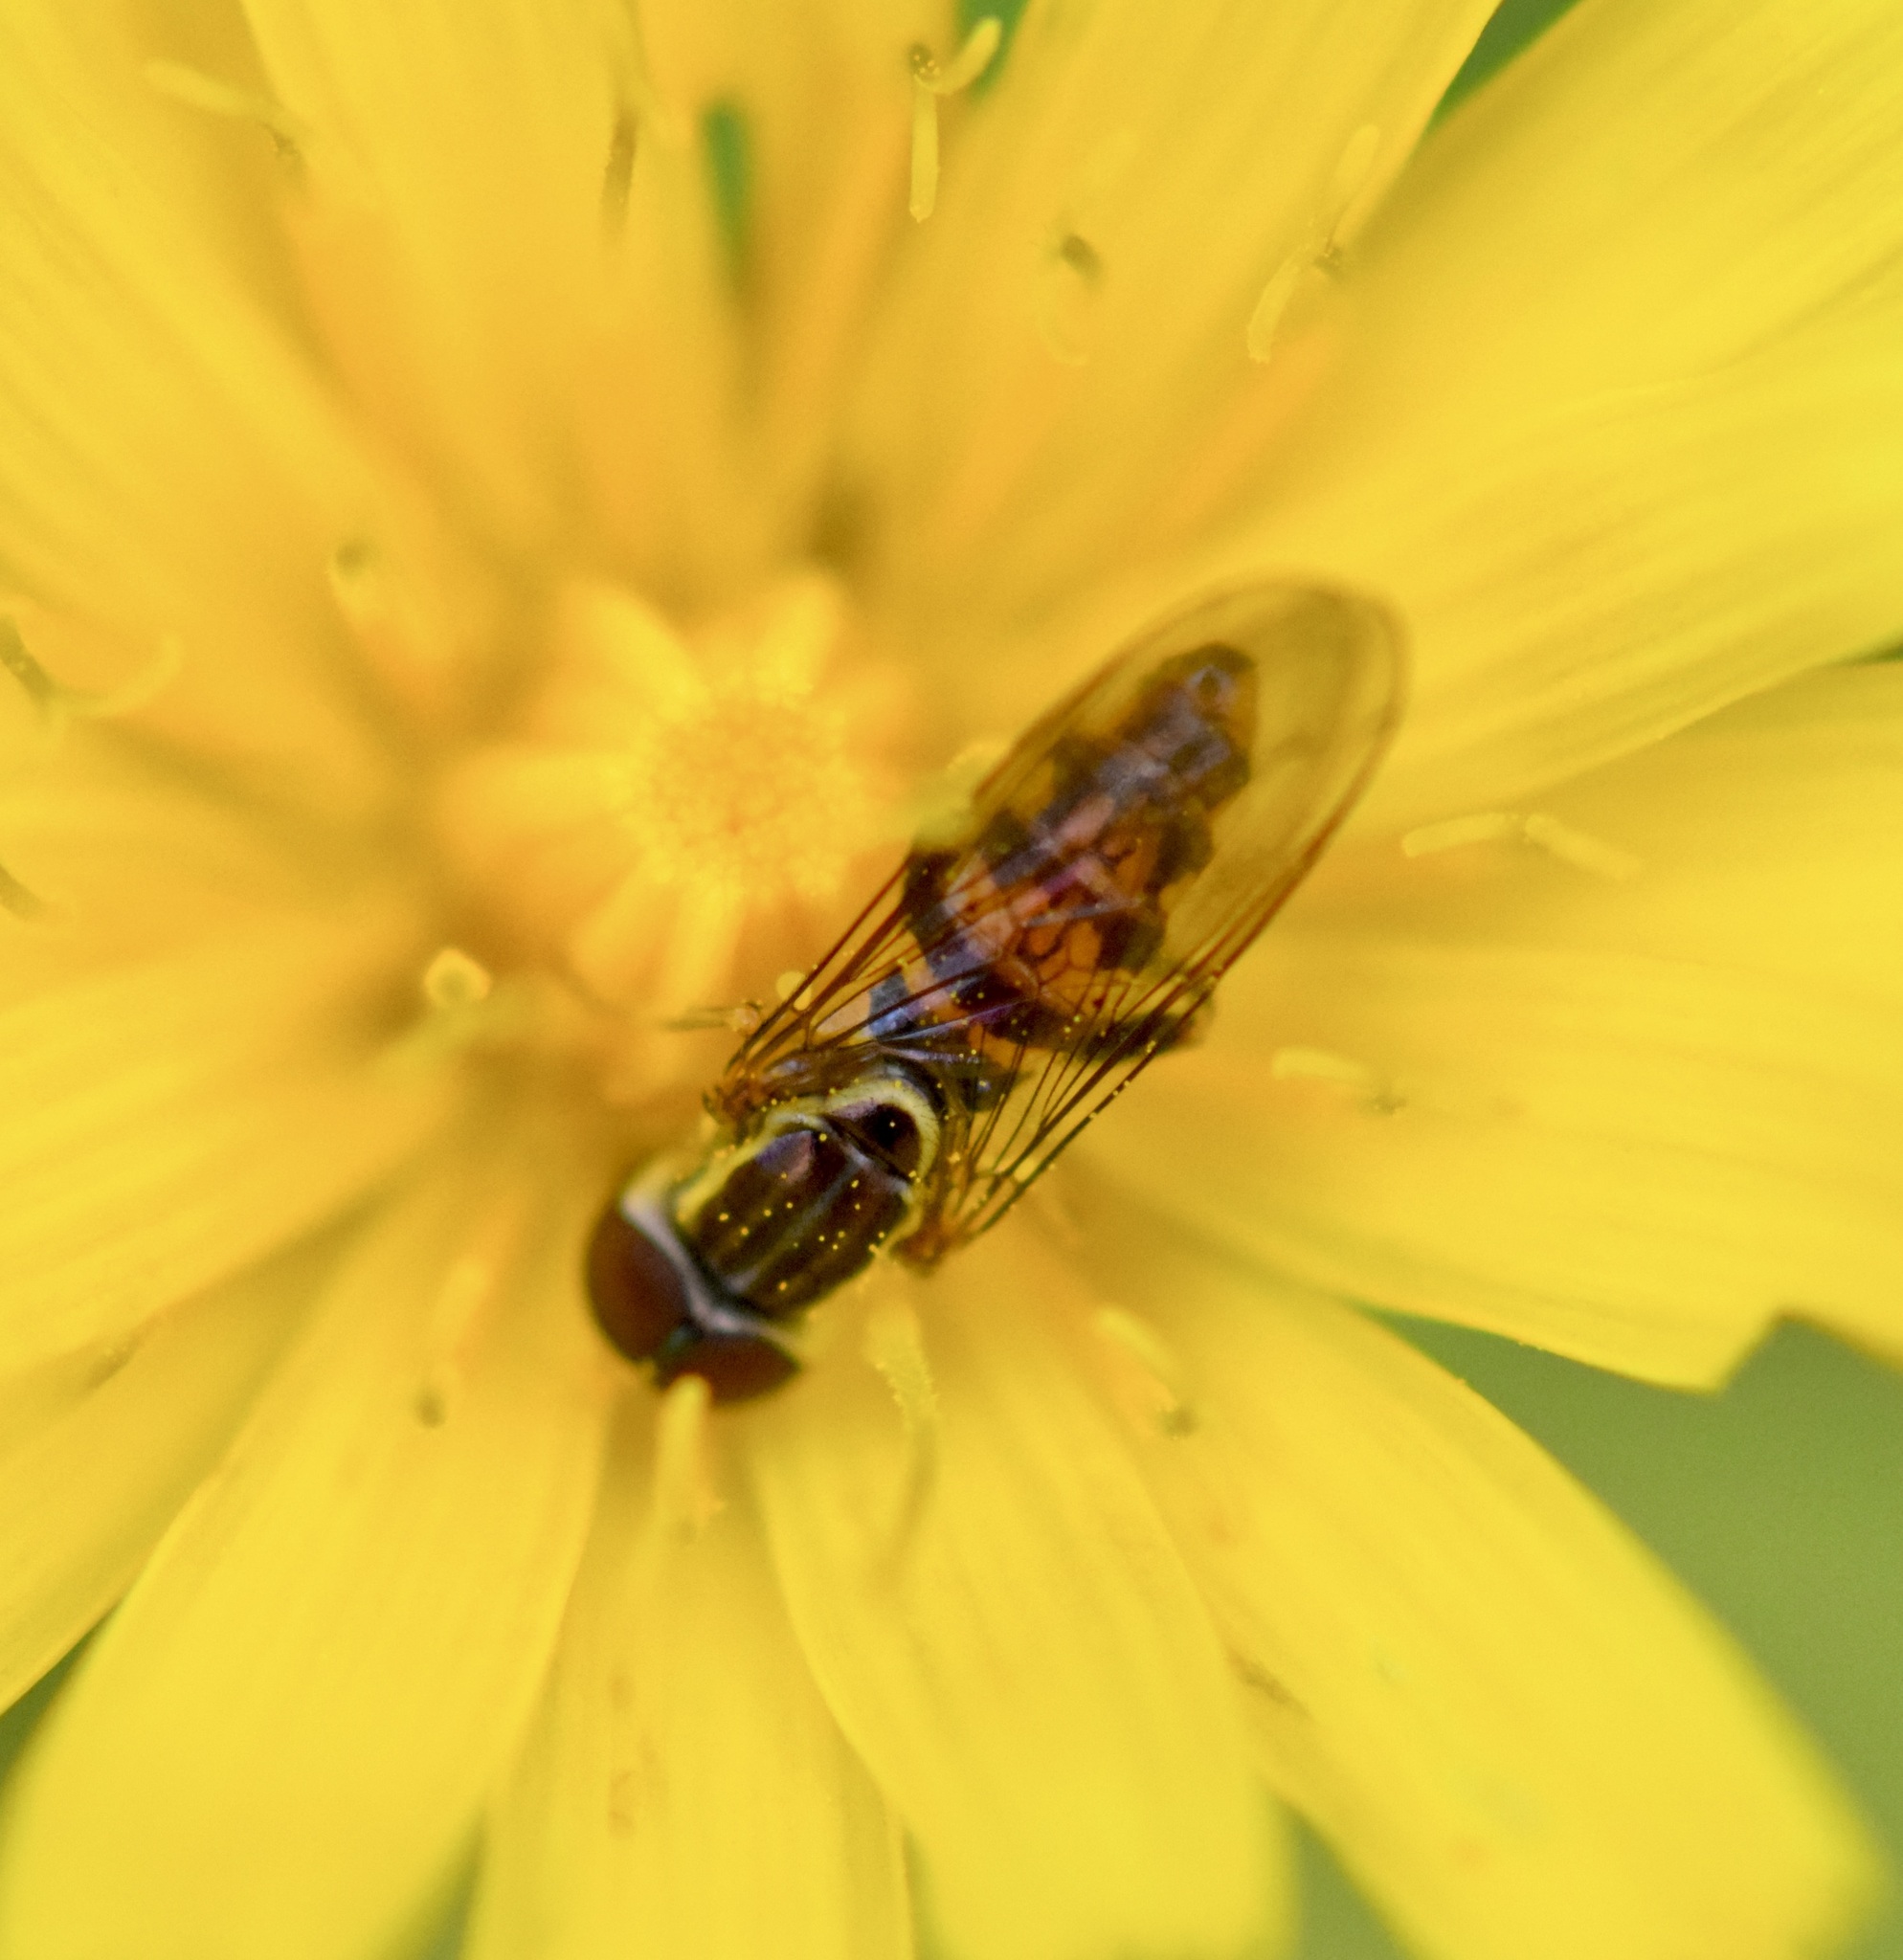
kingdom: Animalia
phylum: Arthropoda
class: Insecta
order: Diptera
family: Syrphidae
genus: Toxomerus
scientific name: Toxomerus geminatus
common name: Eastern calligrapher
